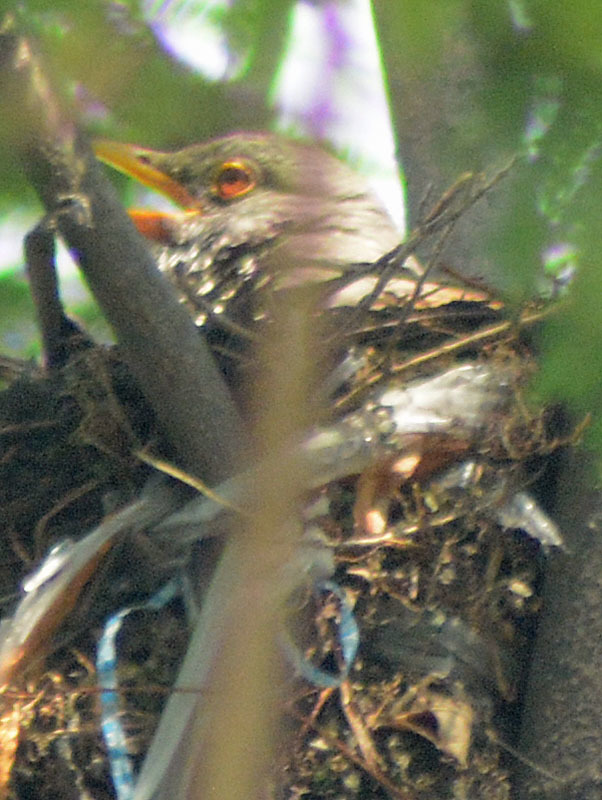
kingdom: Animalia
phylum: Chordata
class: Aves
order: Passeriformes
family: Turdidae
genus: Turdus
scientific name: Turdus rufopalliatus
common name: Rufous-backed robin
